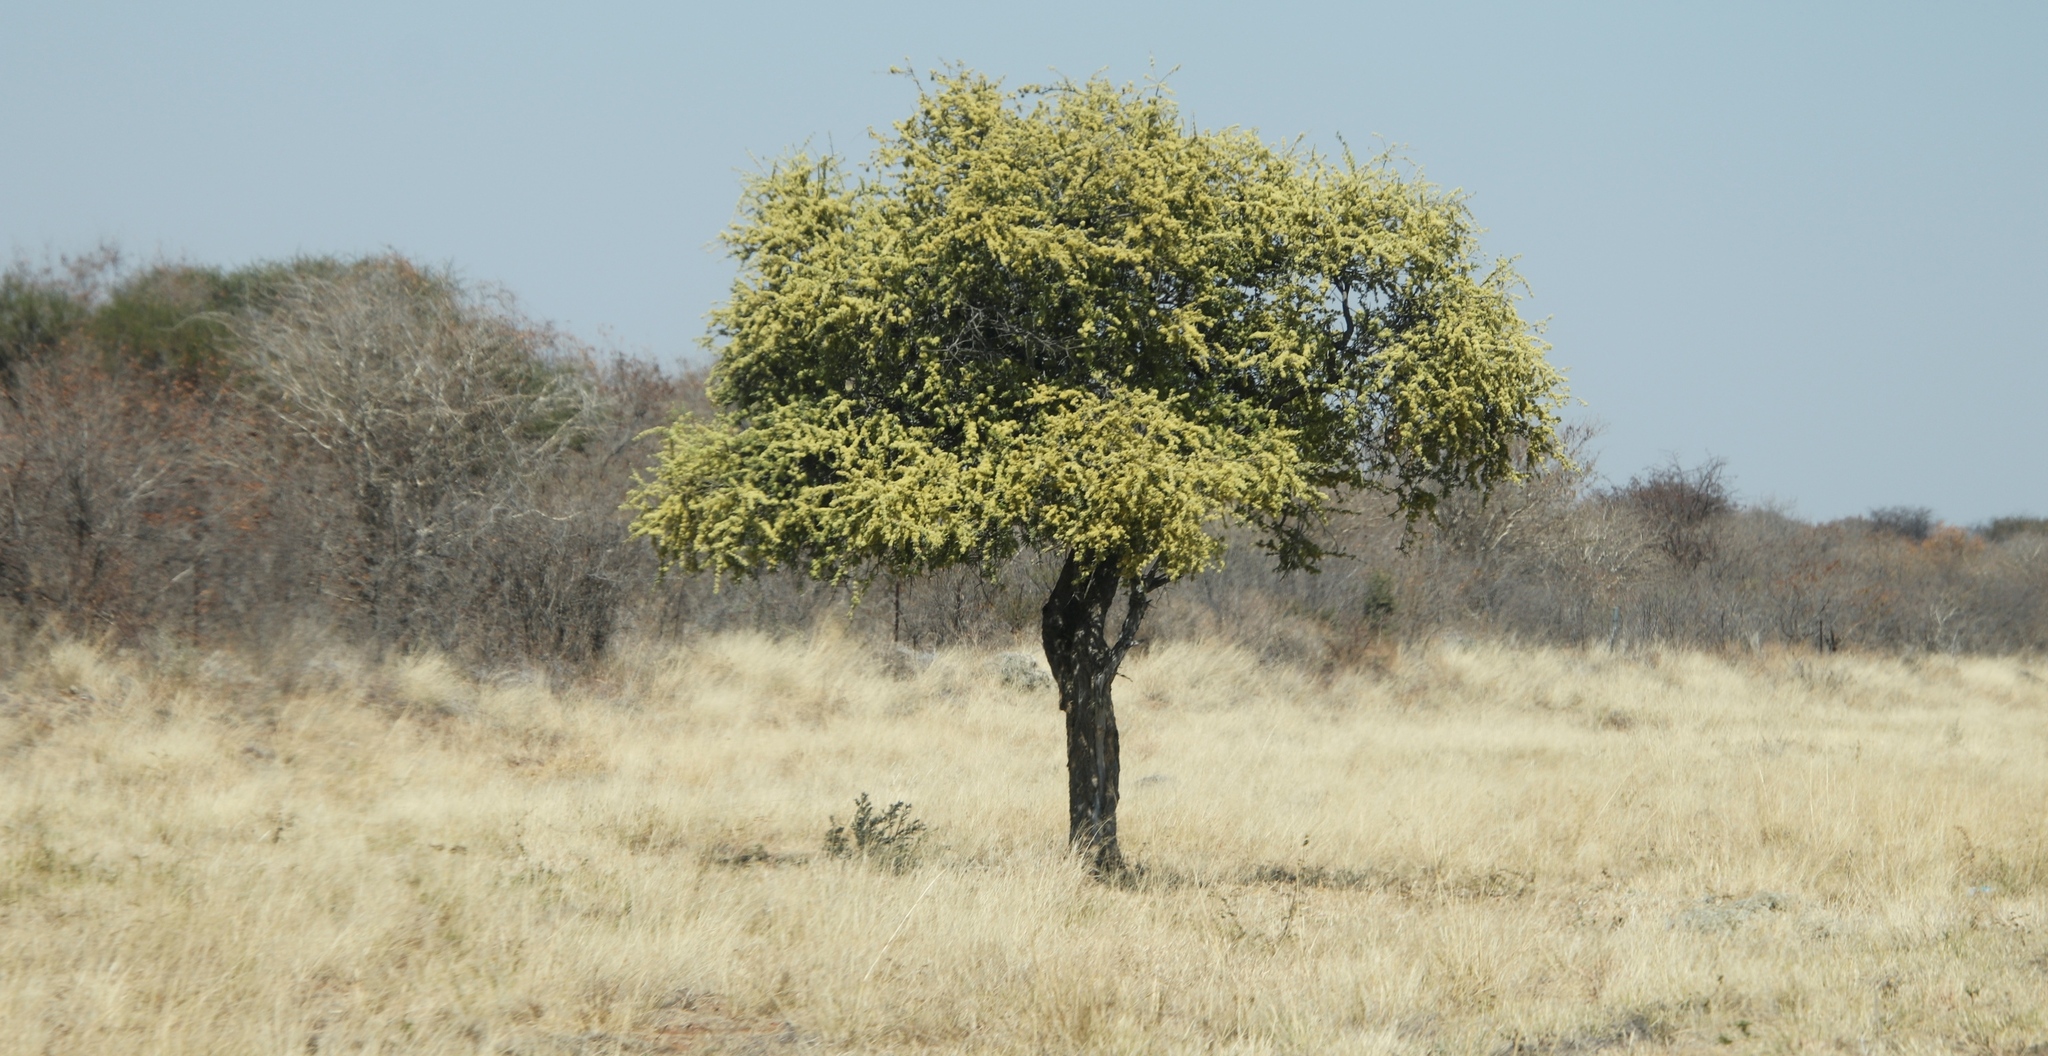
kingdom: Plantae
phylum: Tracheophyta
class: Magnoliopsida
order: Brassicales
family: Capparaceae
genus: Boscia
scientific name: Boscia albitrunca
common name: Caper bush
